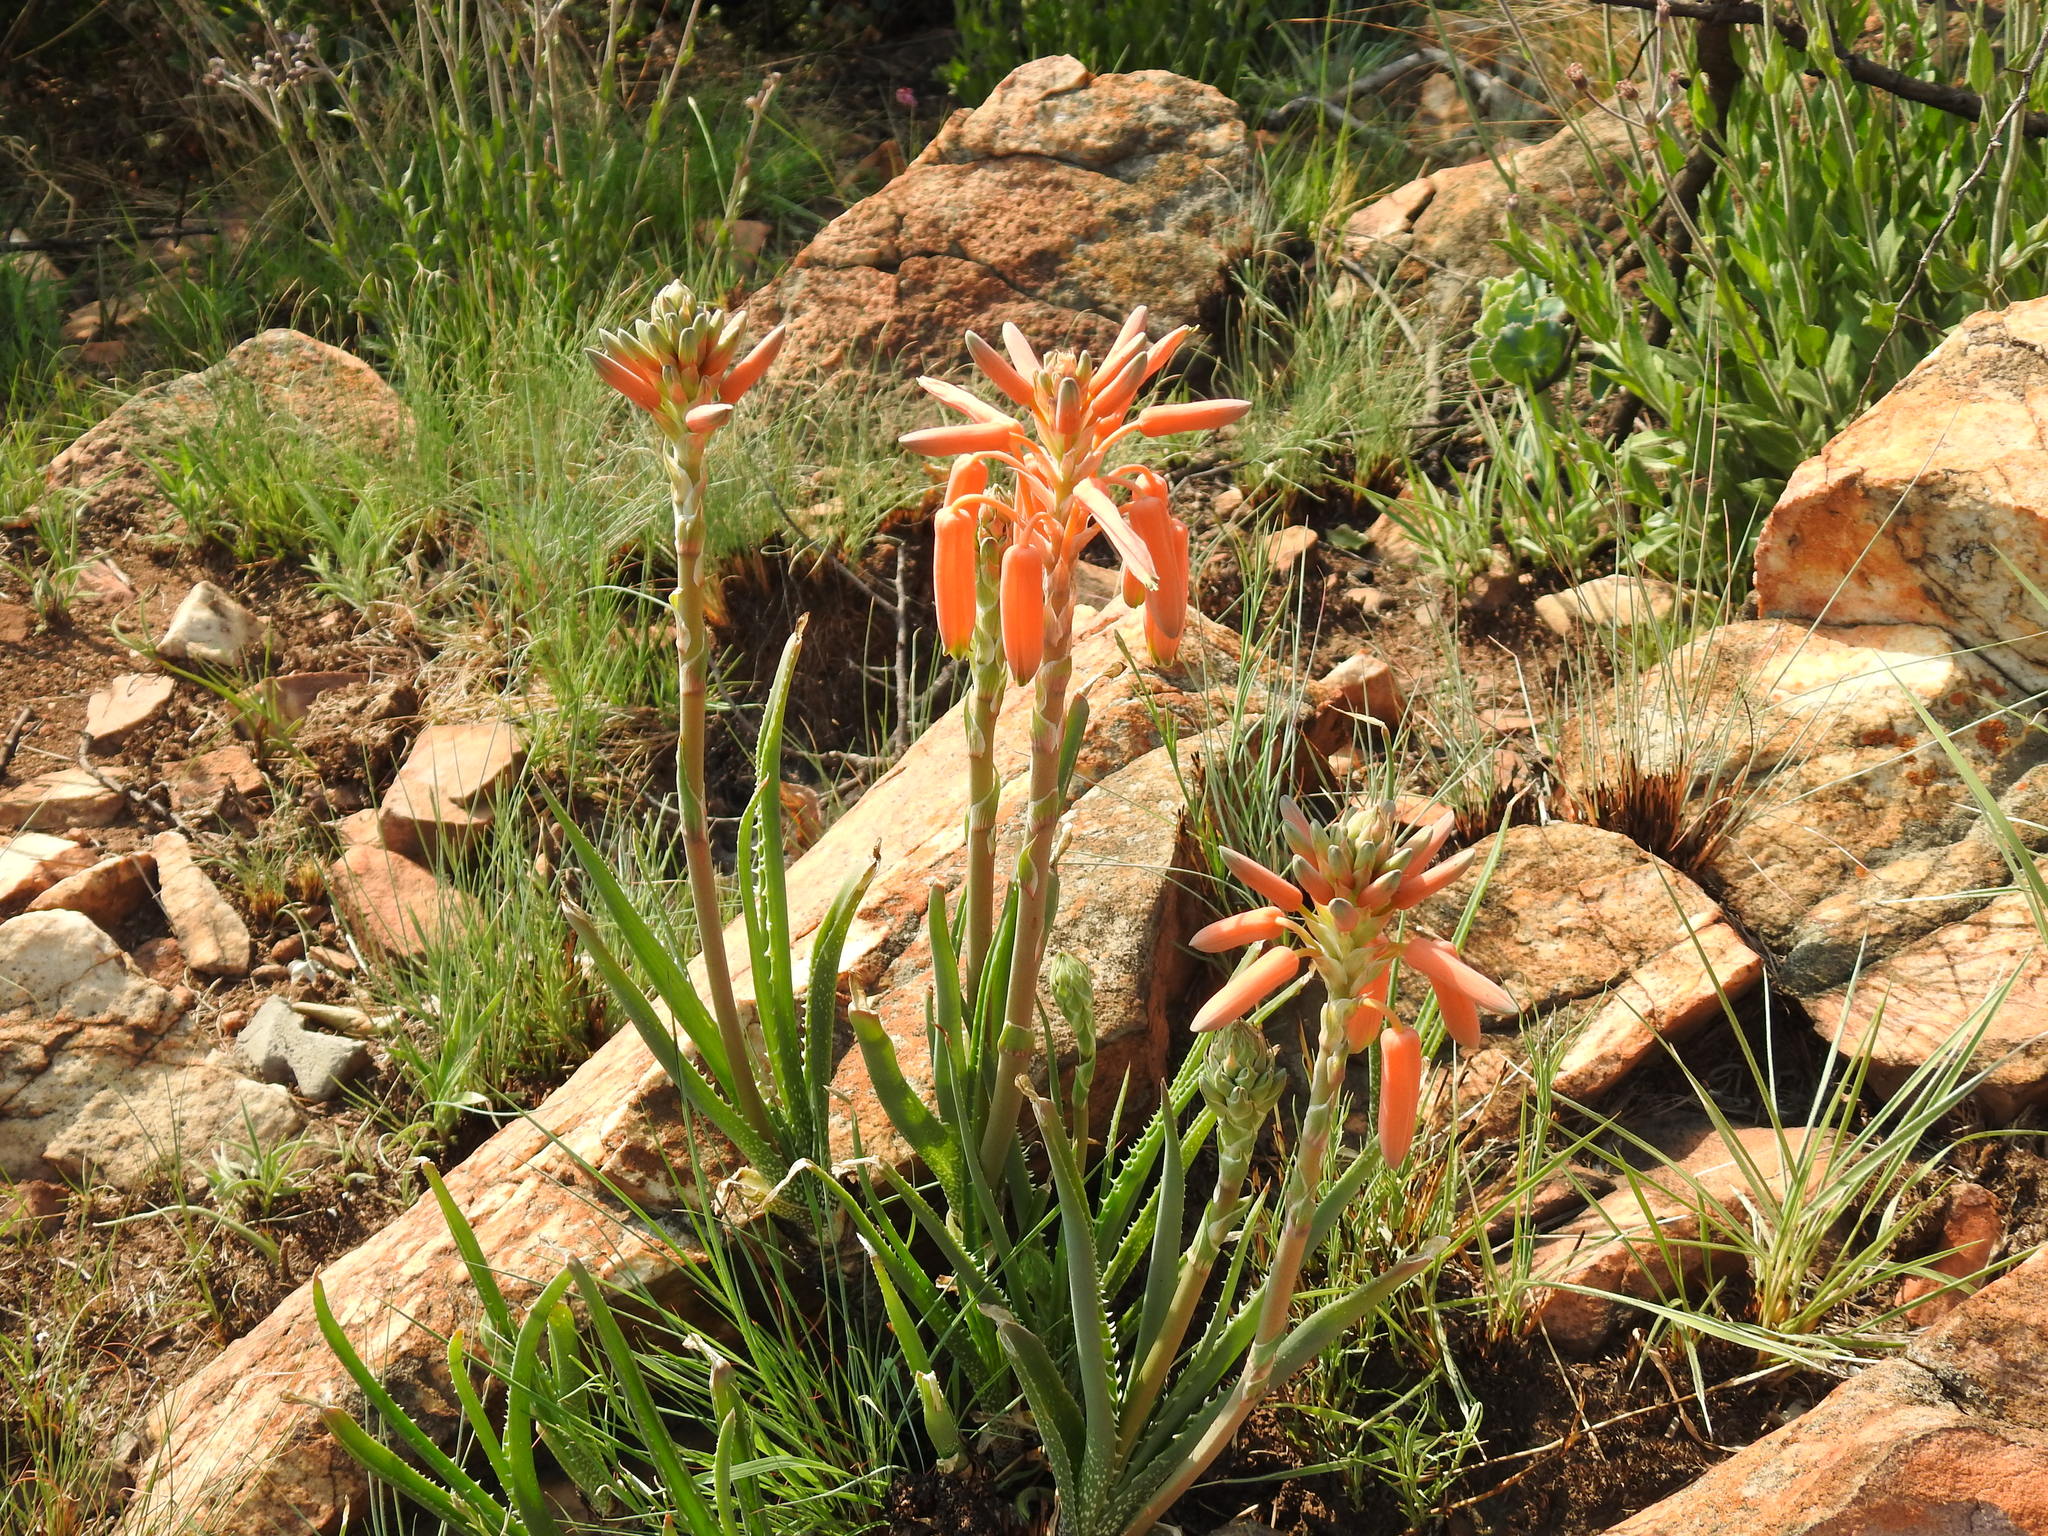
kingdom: Plantae
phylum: Tracheophyta
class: Liliopsida
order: Asparagales
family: Asphodelaceae
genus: Aloe
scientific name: Aloe verecunda
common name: Grass aloe
